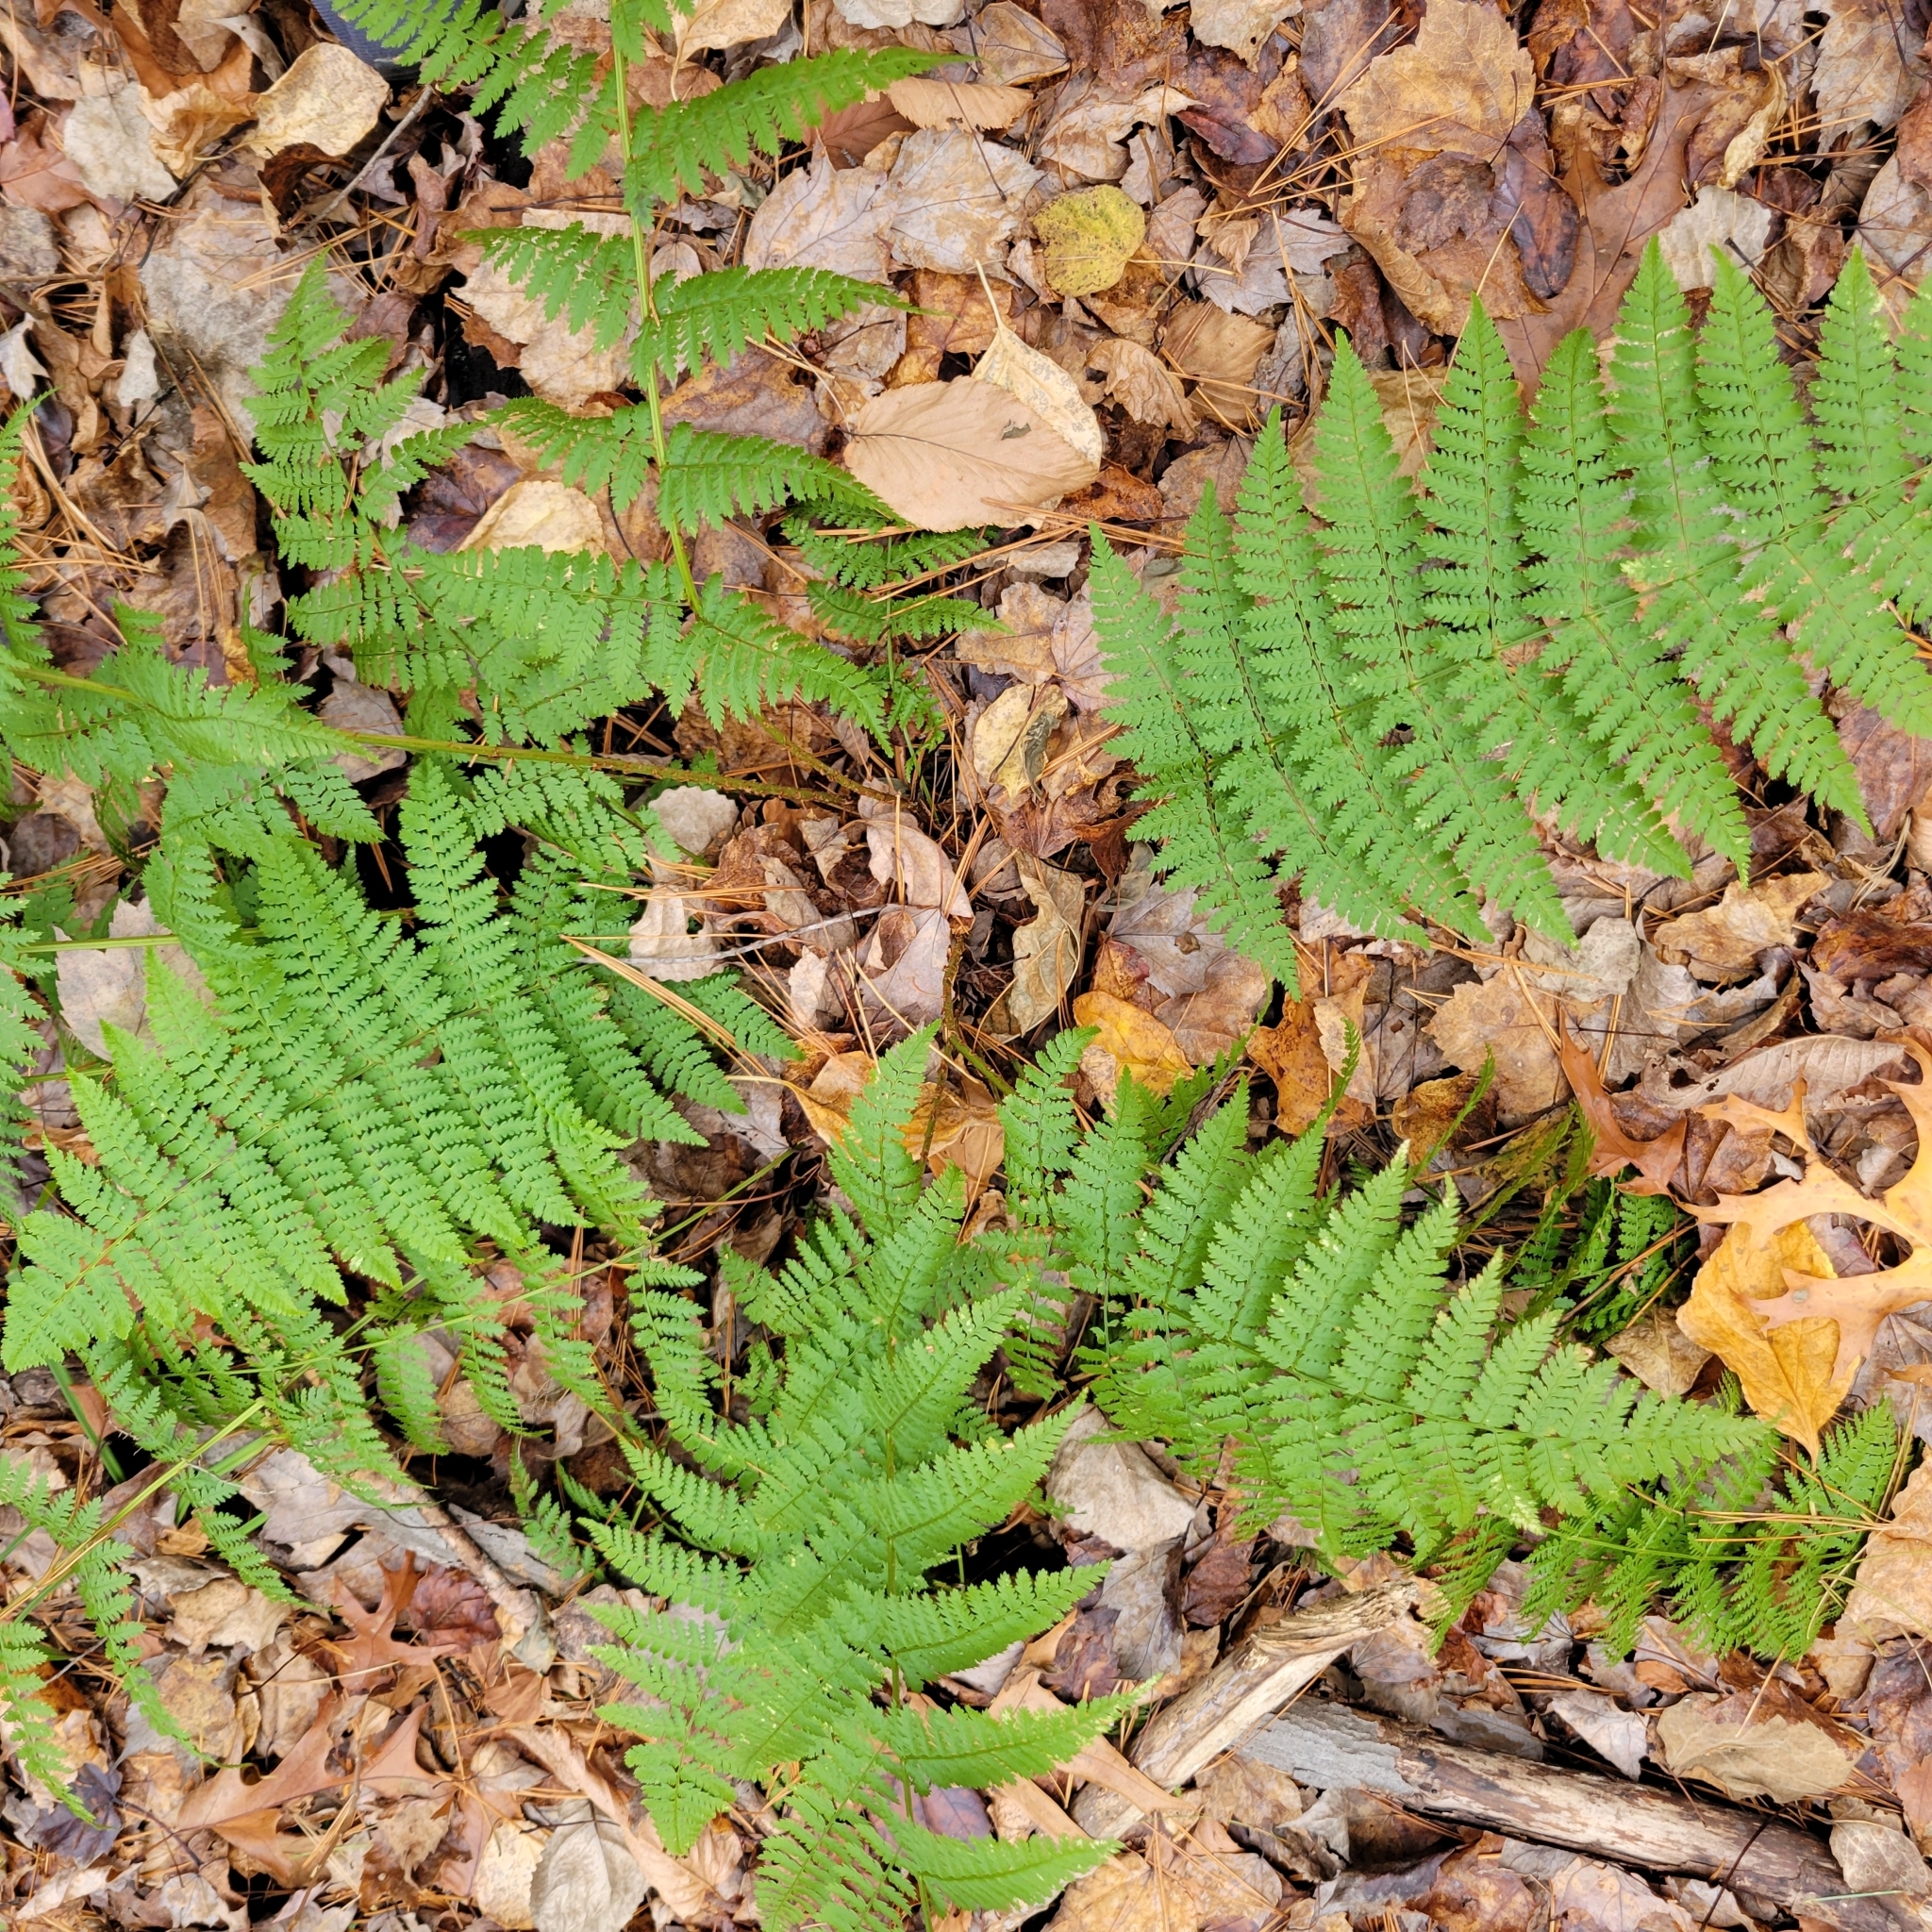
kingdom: Plantae
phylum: Tracheophyta
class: Polypodiopsida
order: Polypodiales
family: Dryopteridaceae
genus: Dryopteris
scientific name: Dryopteris intermedia
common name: Evergreen wood fern
